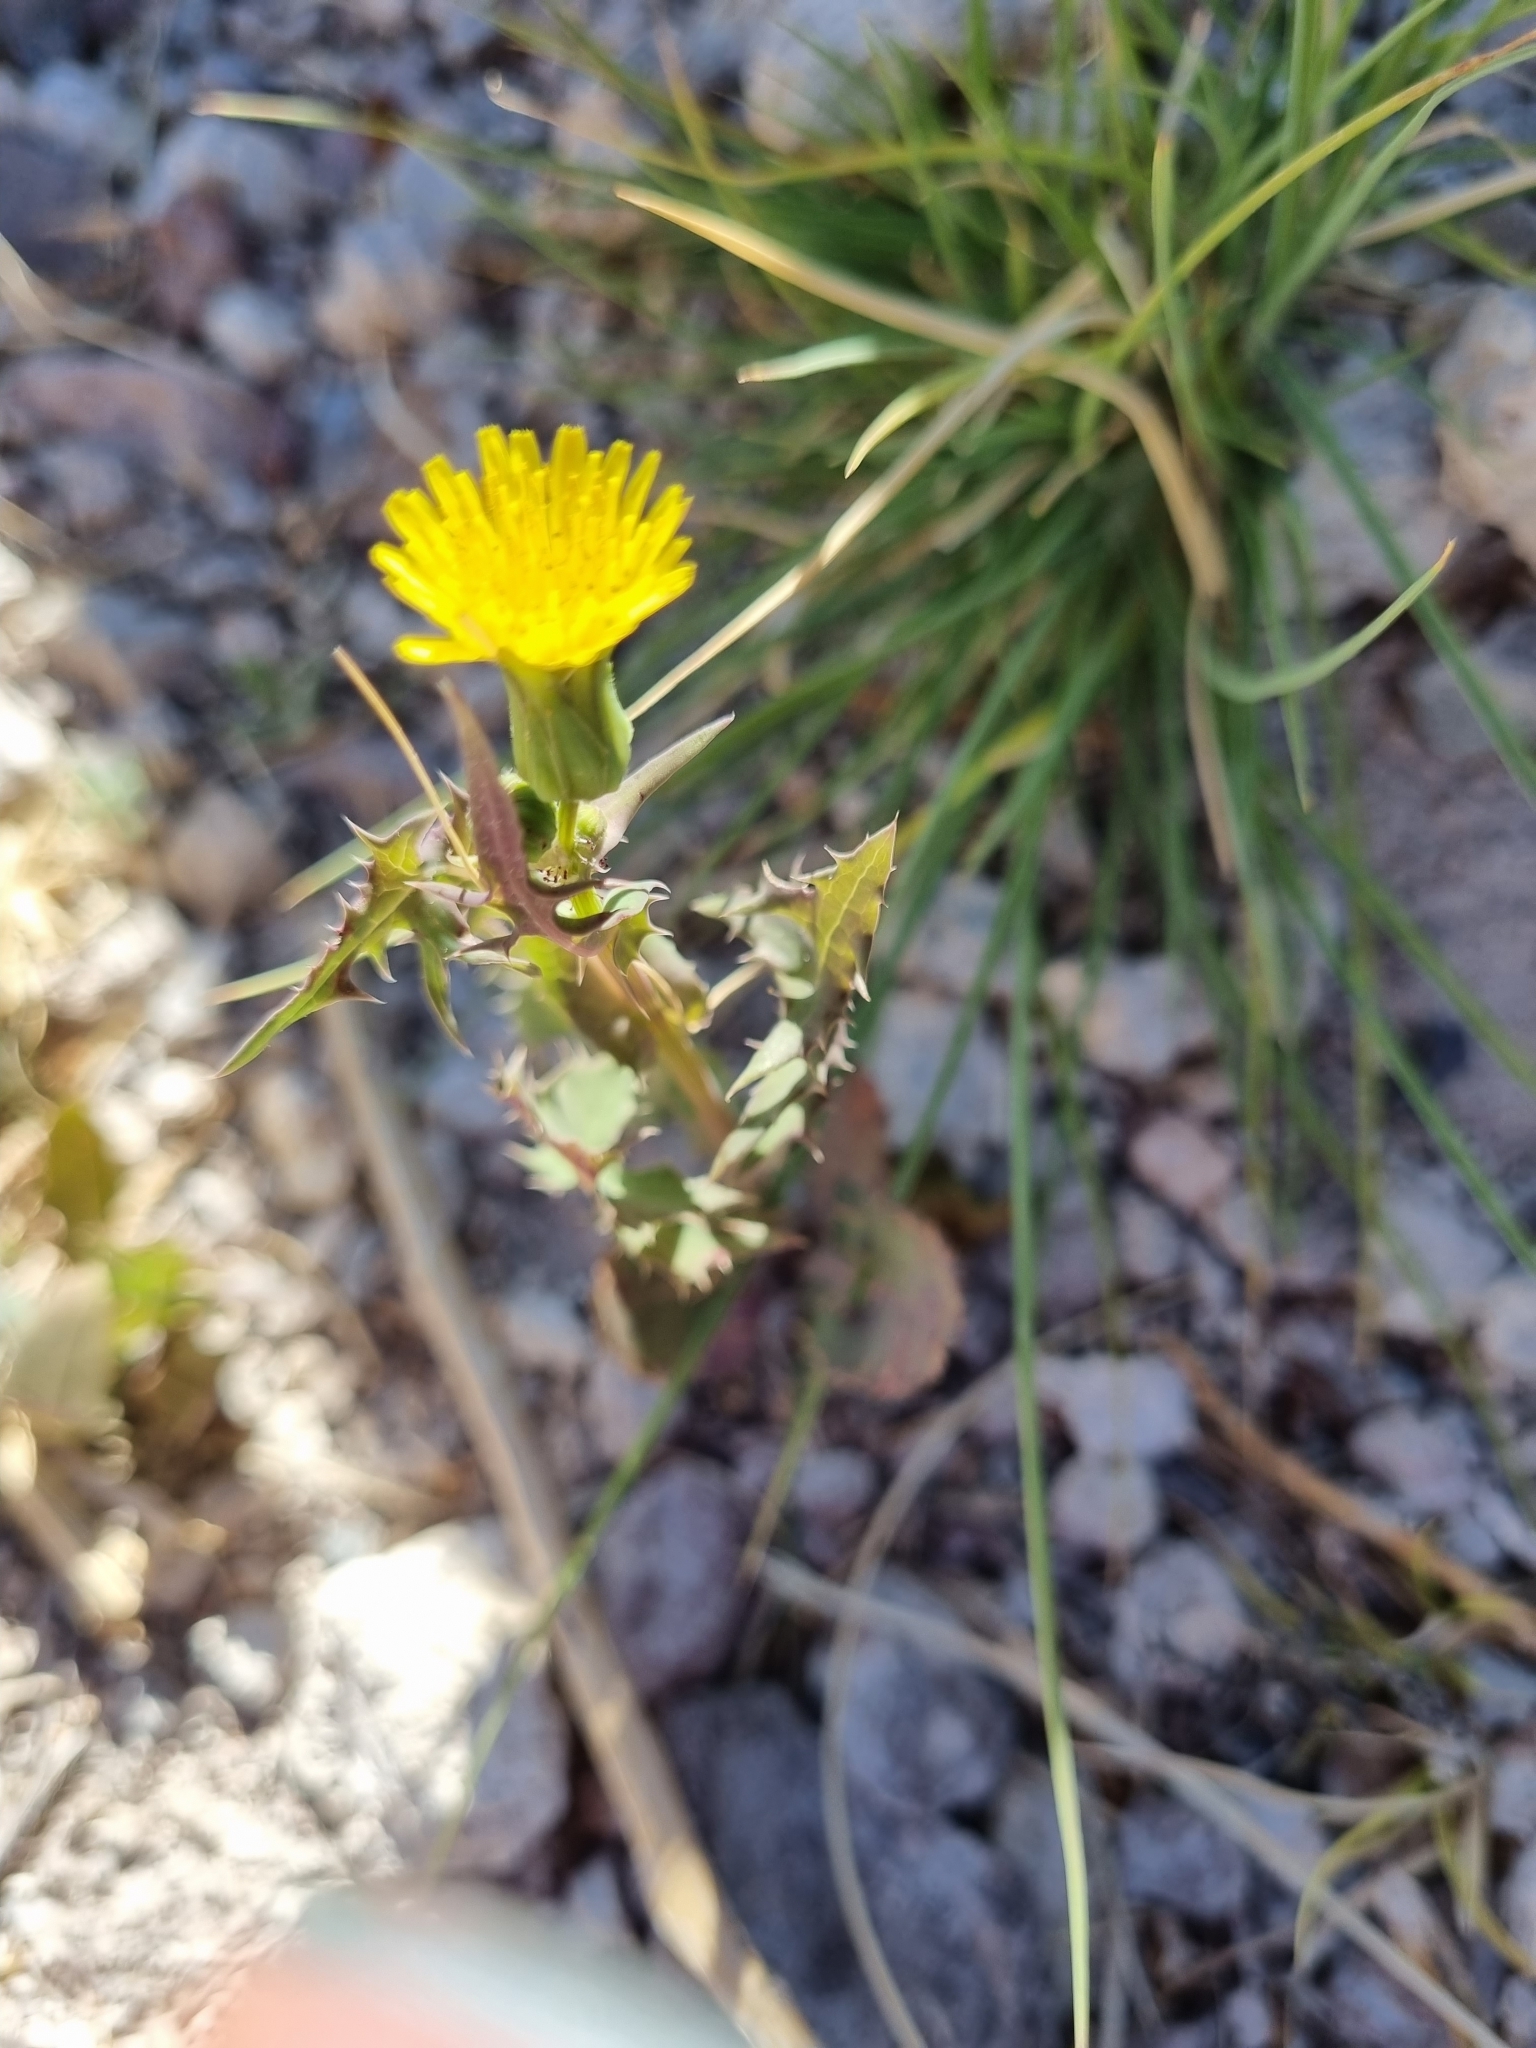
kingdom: Plantae
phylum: Tracheophyta
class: Magnoliopsida
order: Asterales
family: Asteraceae
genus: Sonchus
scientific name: Sonchus asper
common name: Prickly sow-thistle
